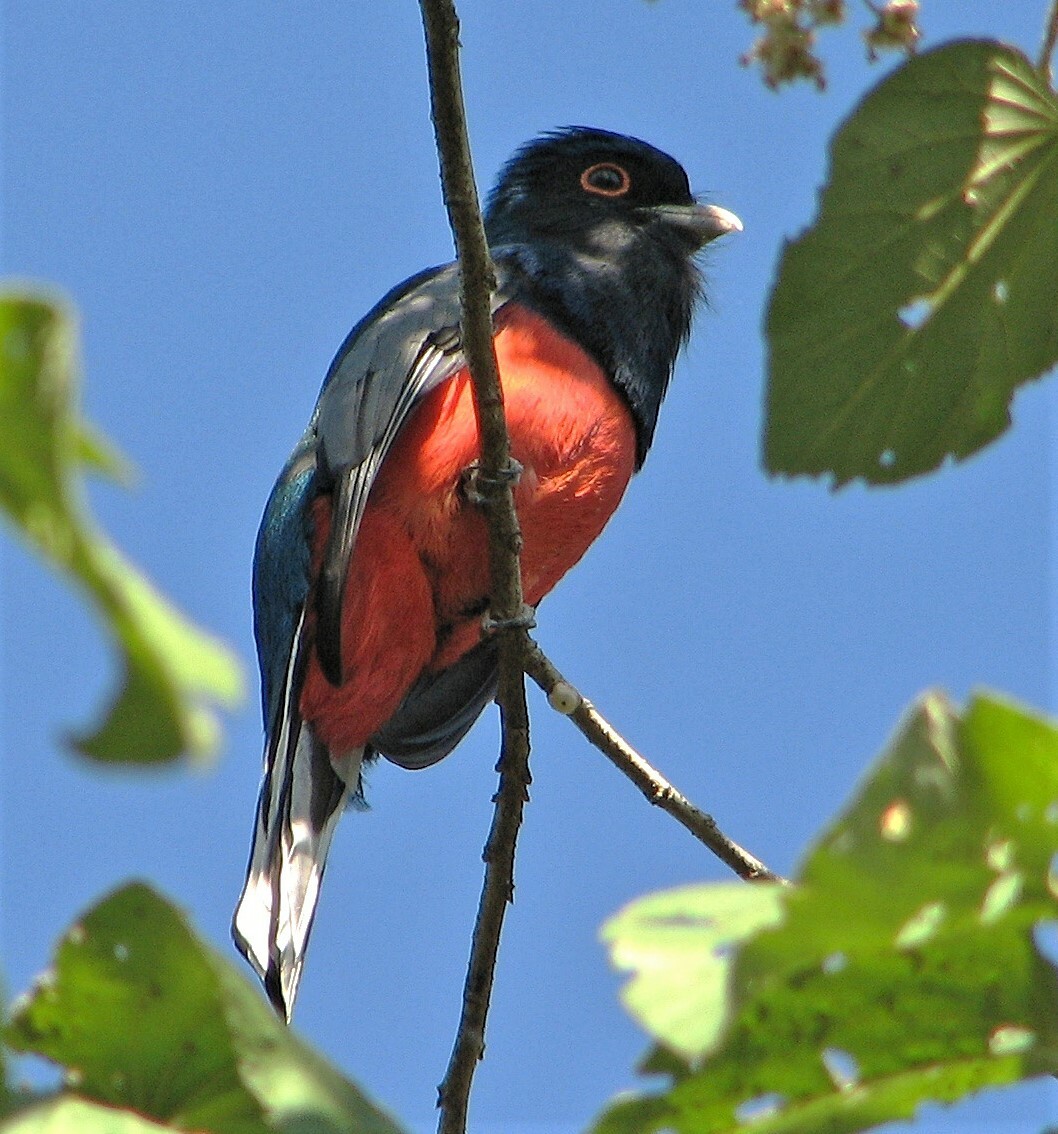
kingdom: Animalia
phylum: Chordata
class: Aves
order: Trogoniformes
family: Trogonidae
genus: Trogon
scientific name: Trogon surrucura
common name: Surucua trogon
